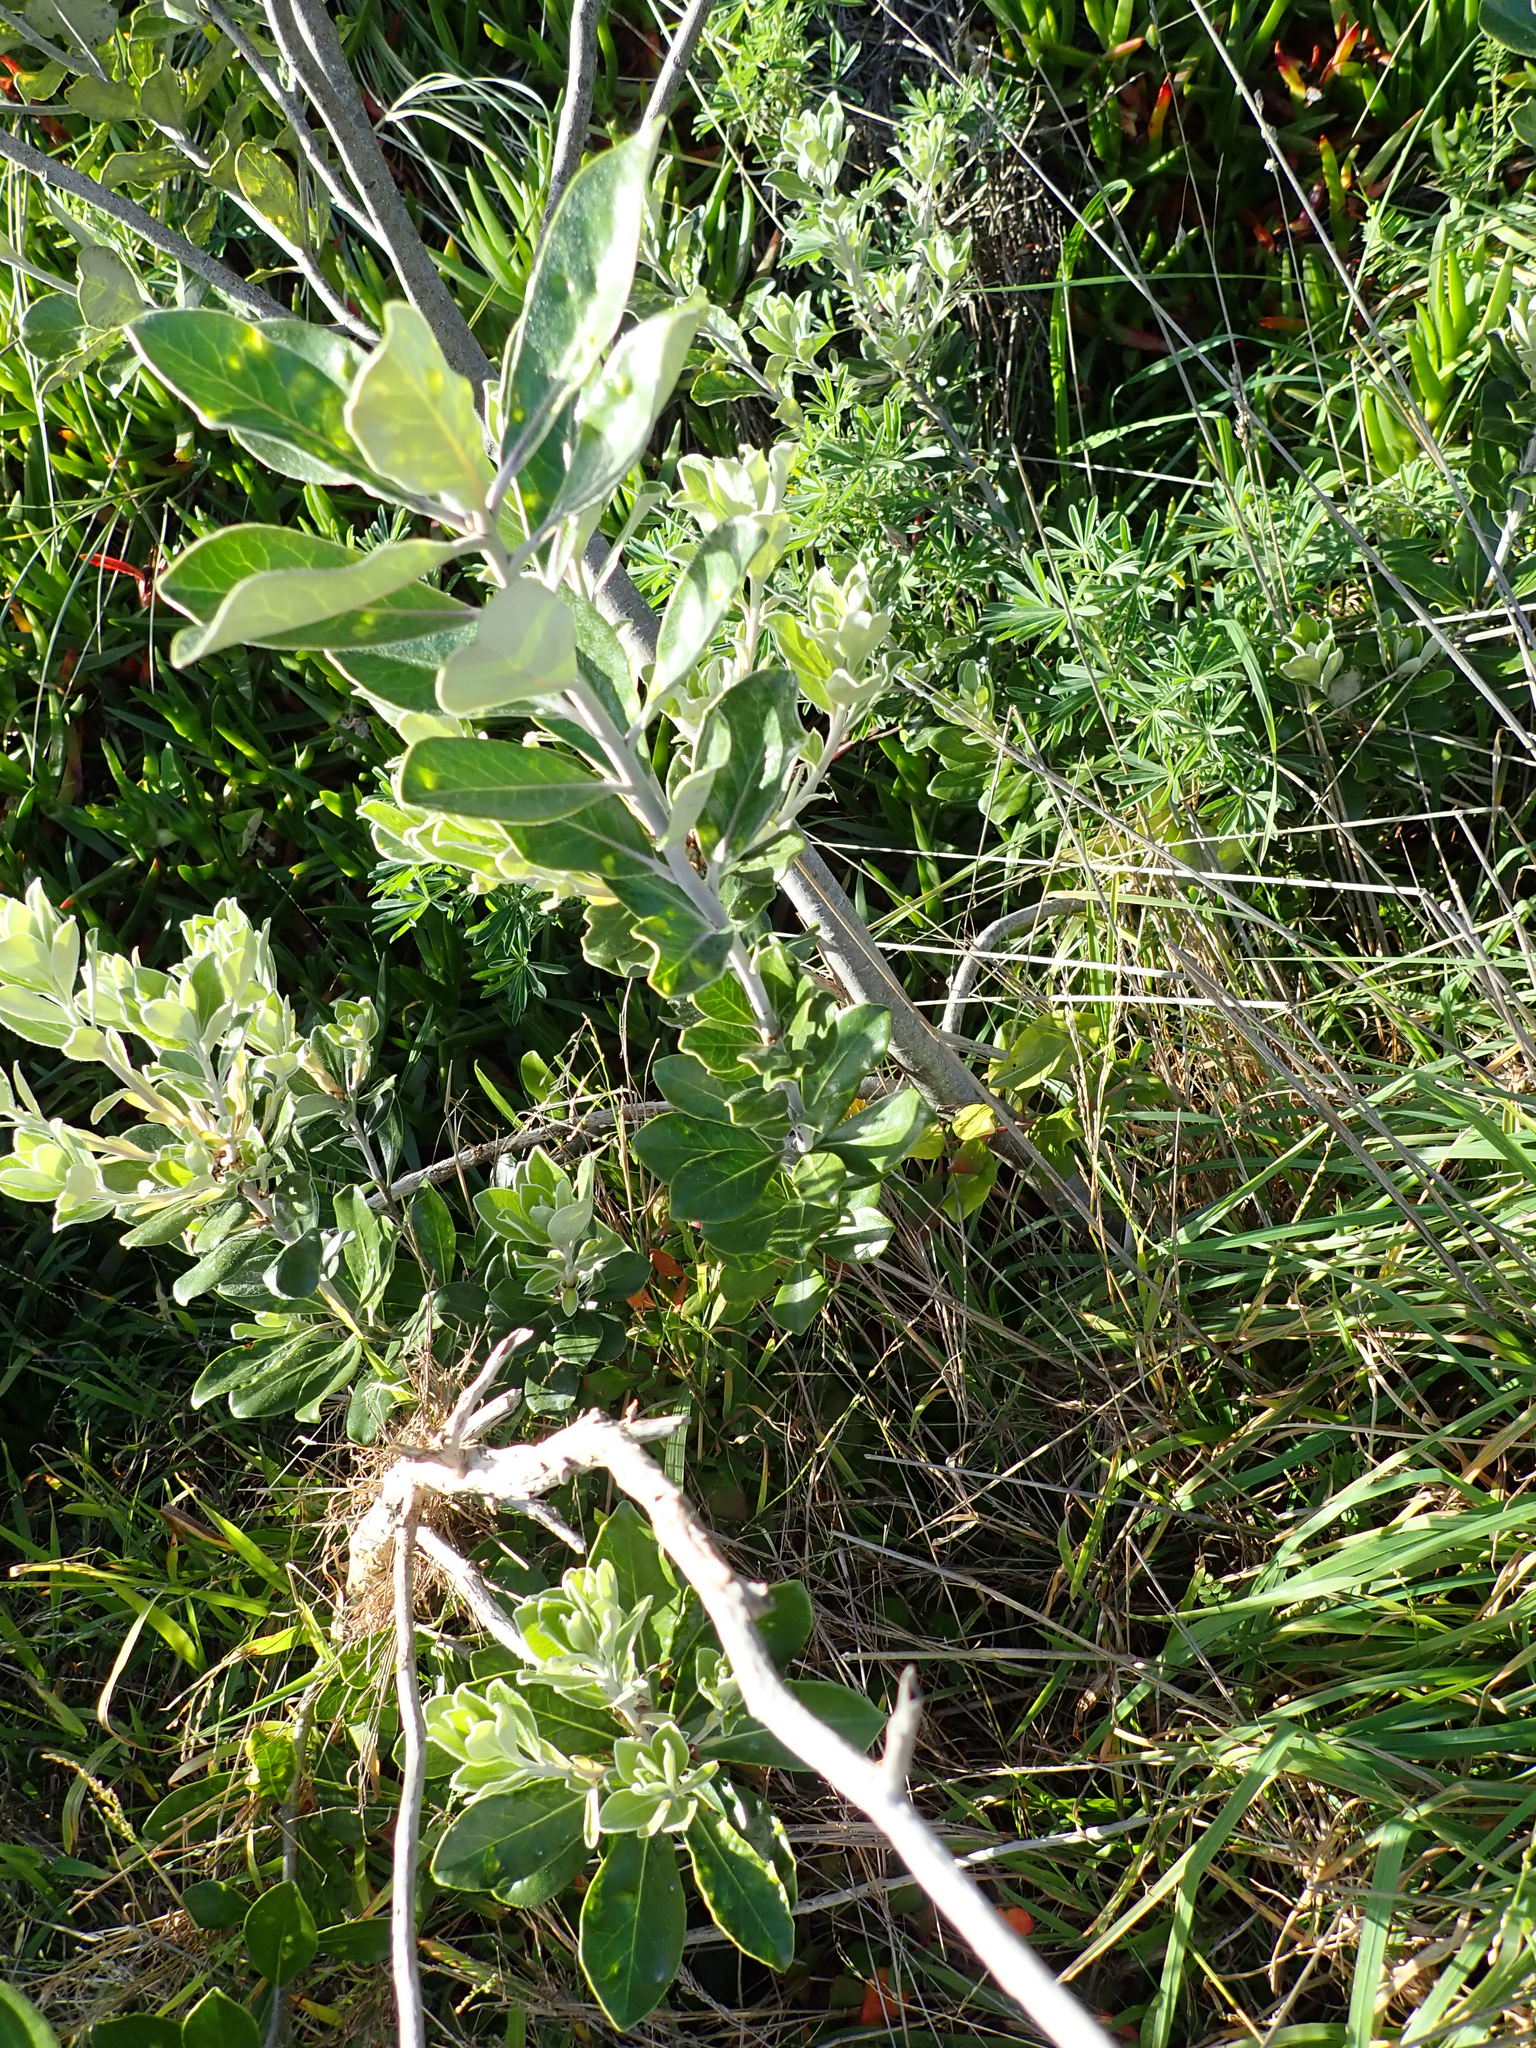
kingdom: Plantae
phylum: Tracheophyta
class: Magnoliopsida
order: Apiales
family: Pittosporaceae
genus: Pittosporum
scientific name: Pittosporum crassifolium
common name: Karo
